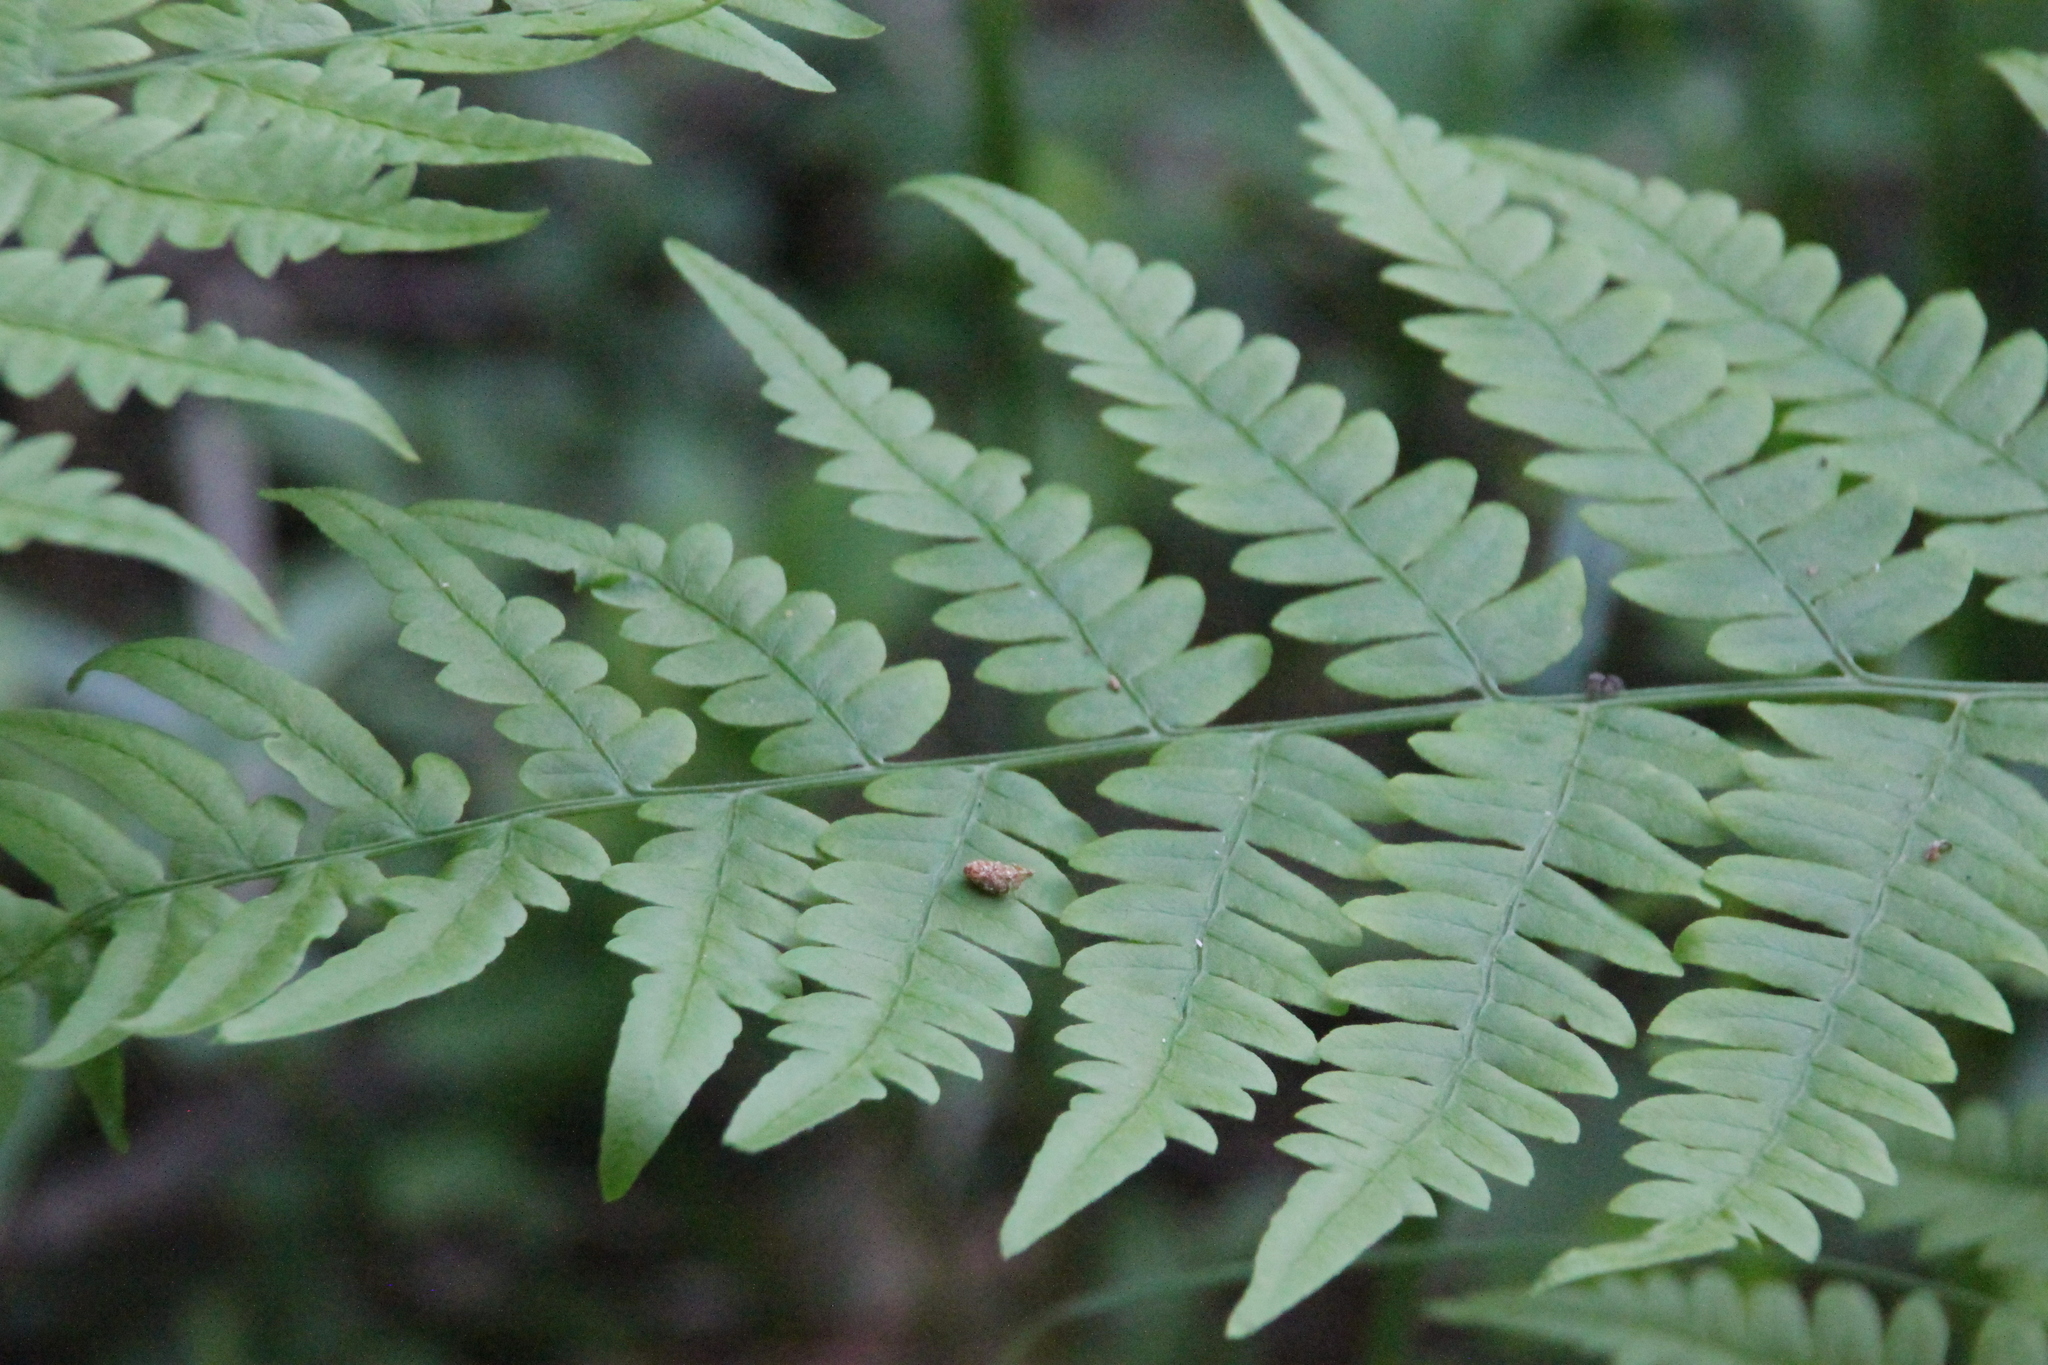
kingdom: Plantae
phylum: Tracheophyta
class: Polypodiopsida
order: Polypodiales
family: Dennstaedtiaceae
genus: Pteridium
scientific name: Pteridium aquilinum
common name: Bracken
